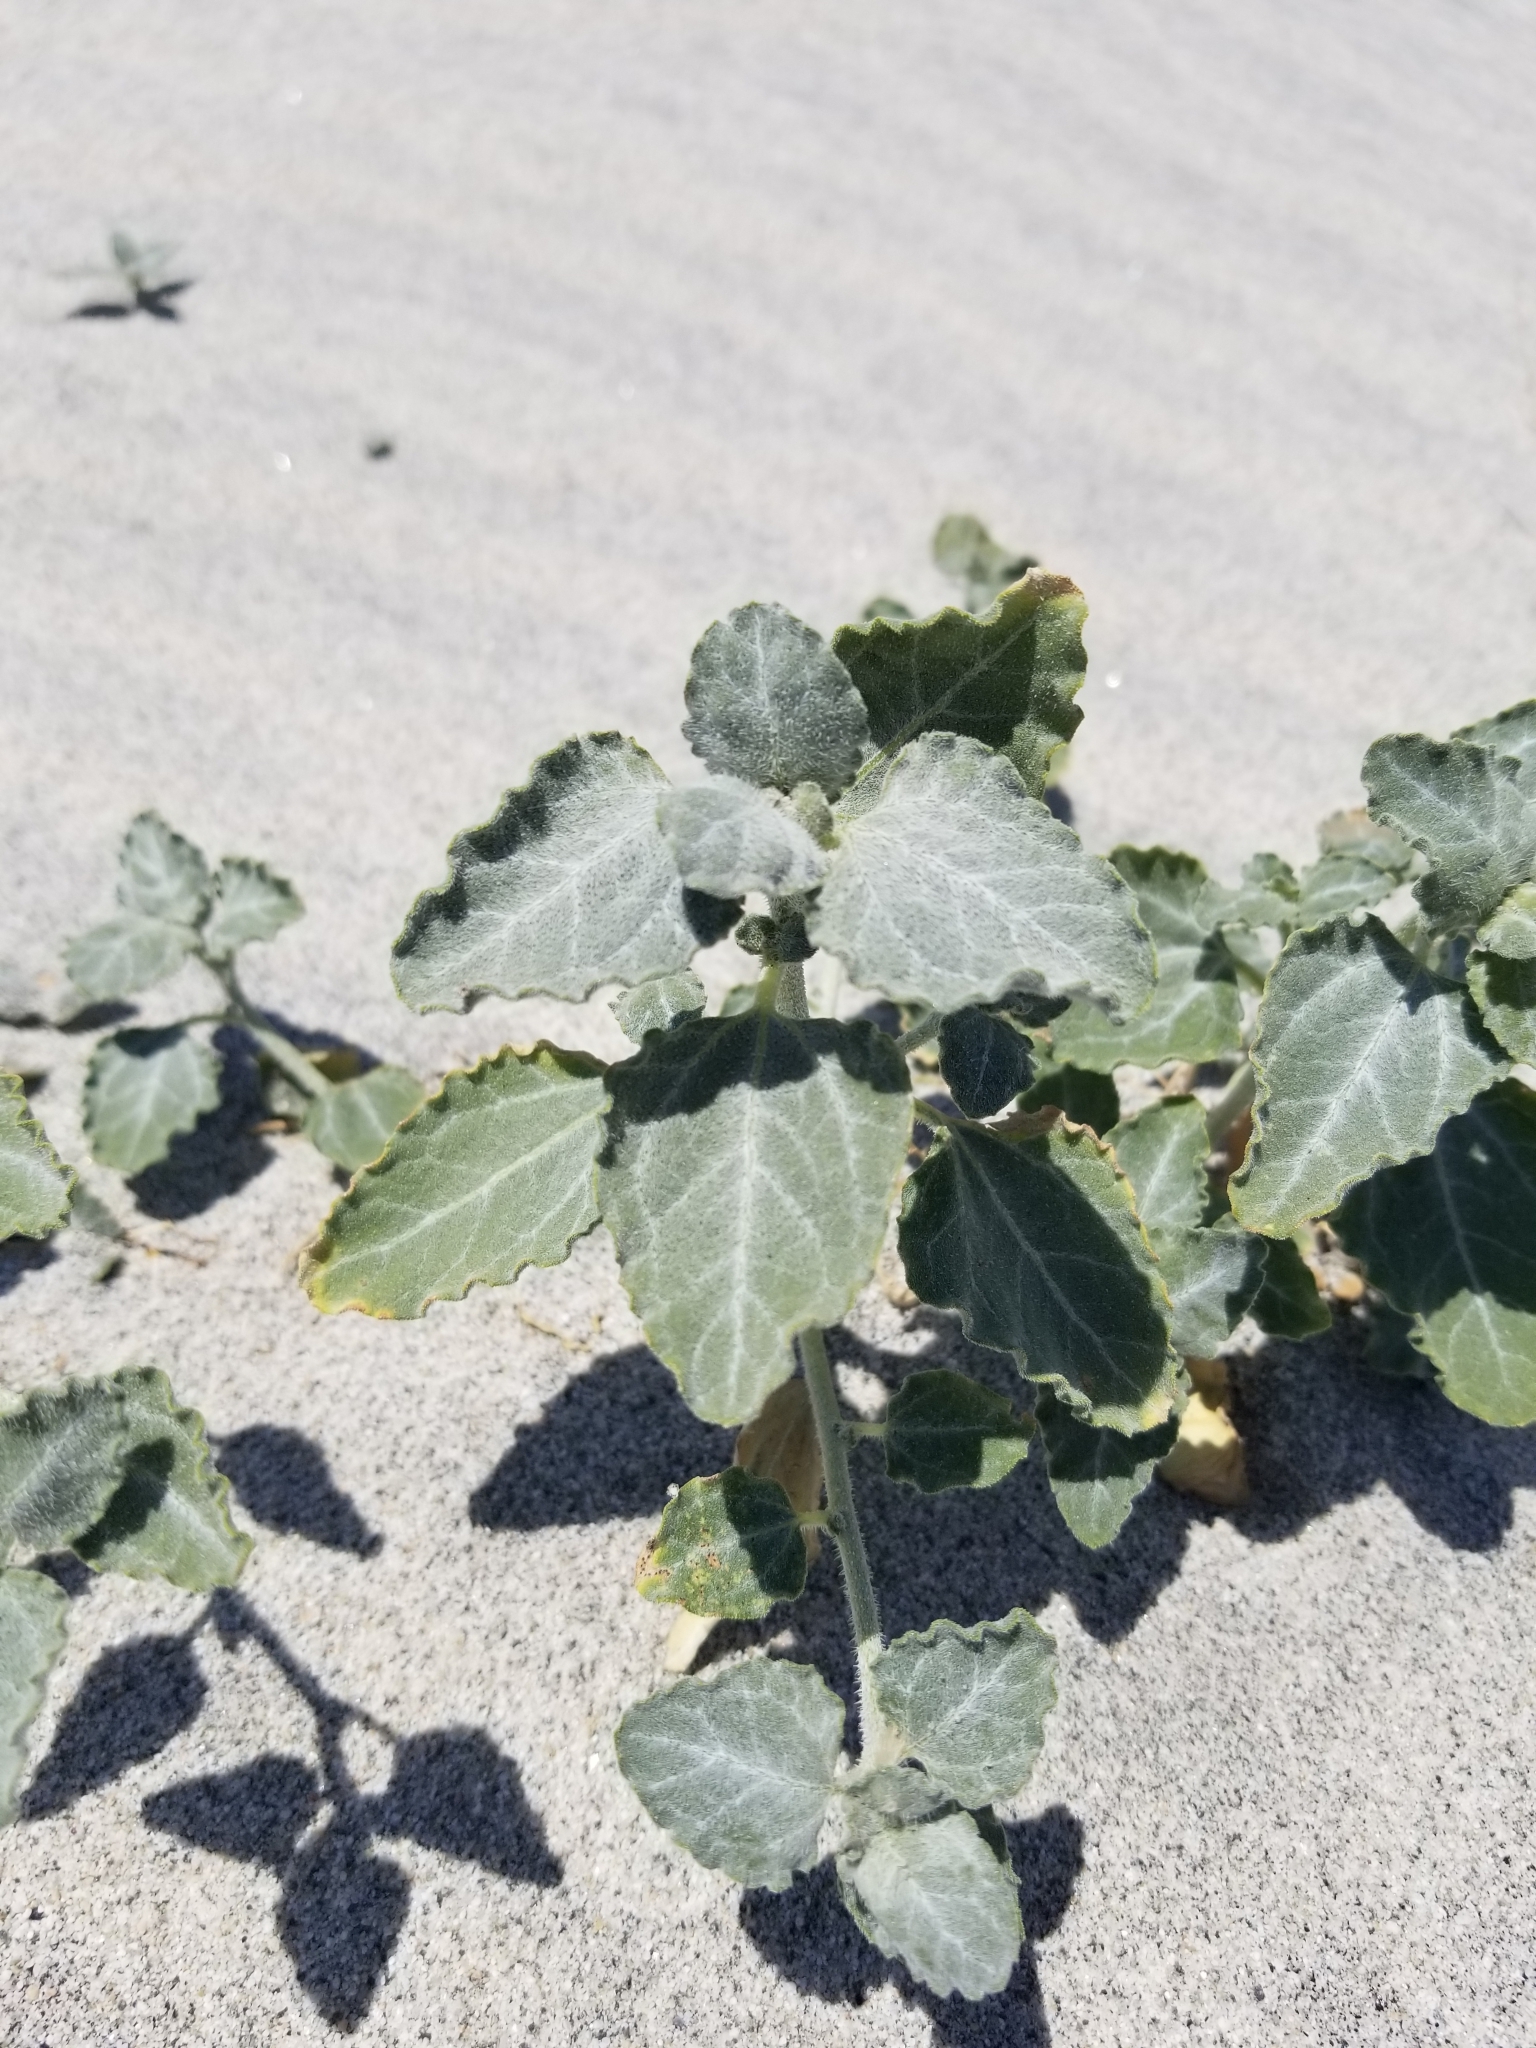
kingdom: Plantae
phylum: Tracheophyta
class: Magnoliopsida
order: Asterales
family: Asteraceae
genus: Dicoria
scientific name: Dicoria canescens
